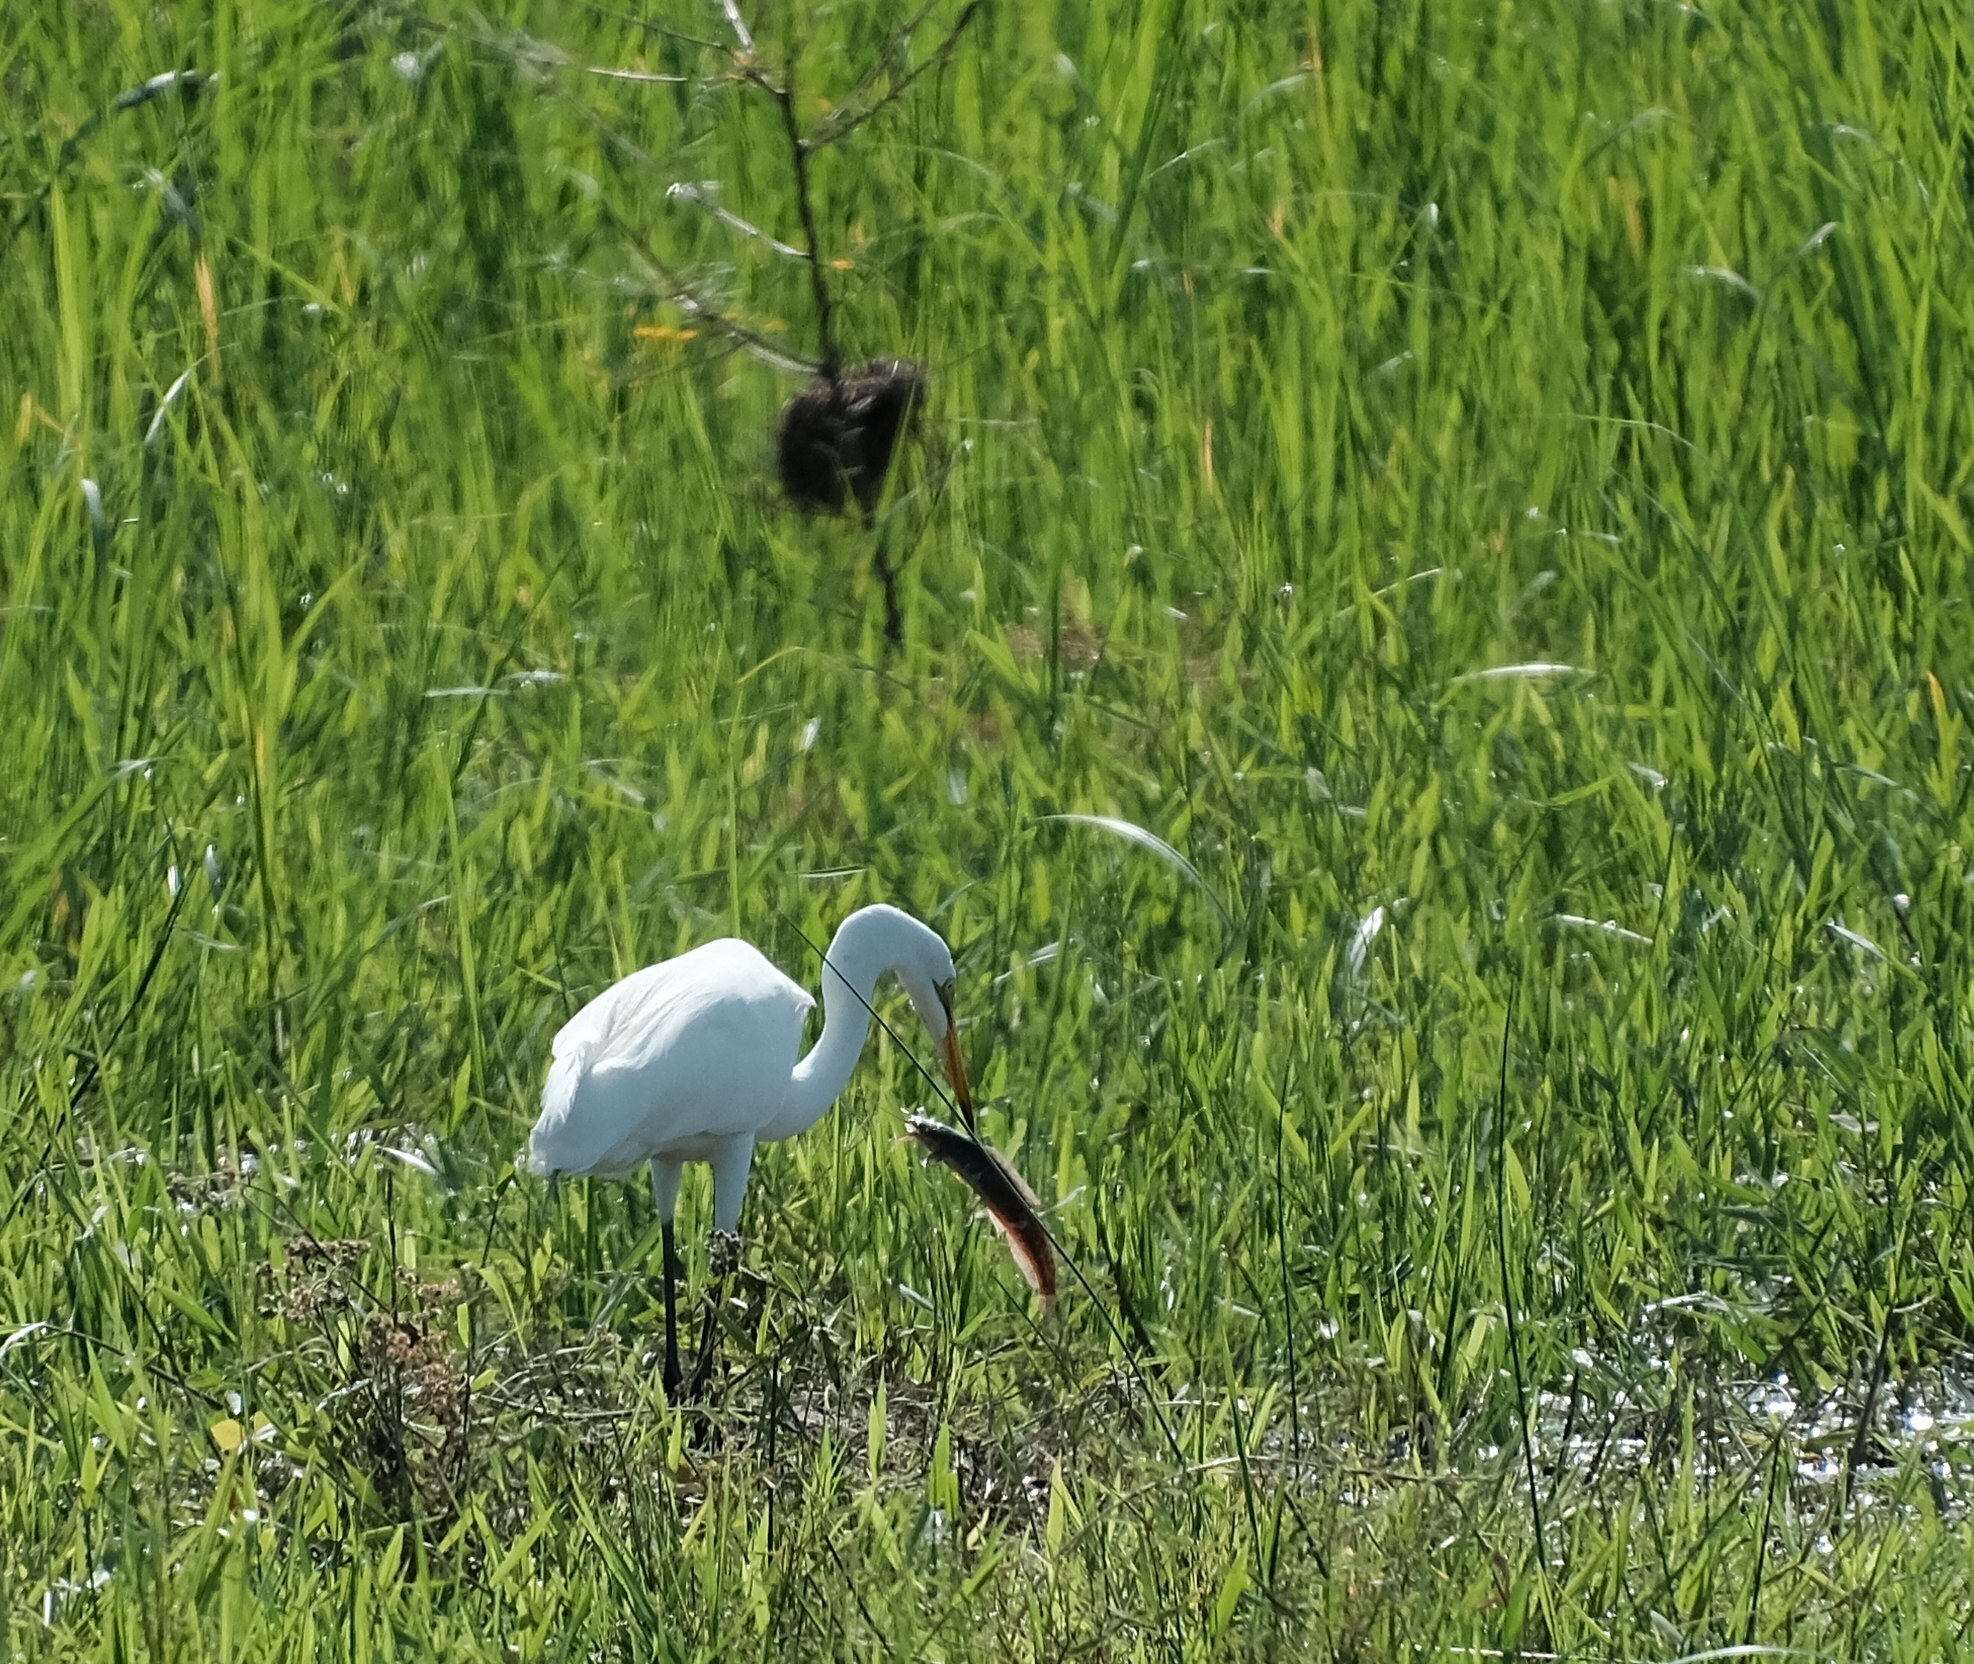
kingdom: Animalia
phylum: Chordata
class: Aves
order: Pelecaniformes
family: Ardeidae
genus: Ardea
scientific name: Ardea alba
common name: Great egret
